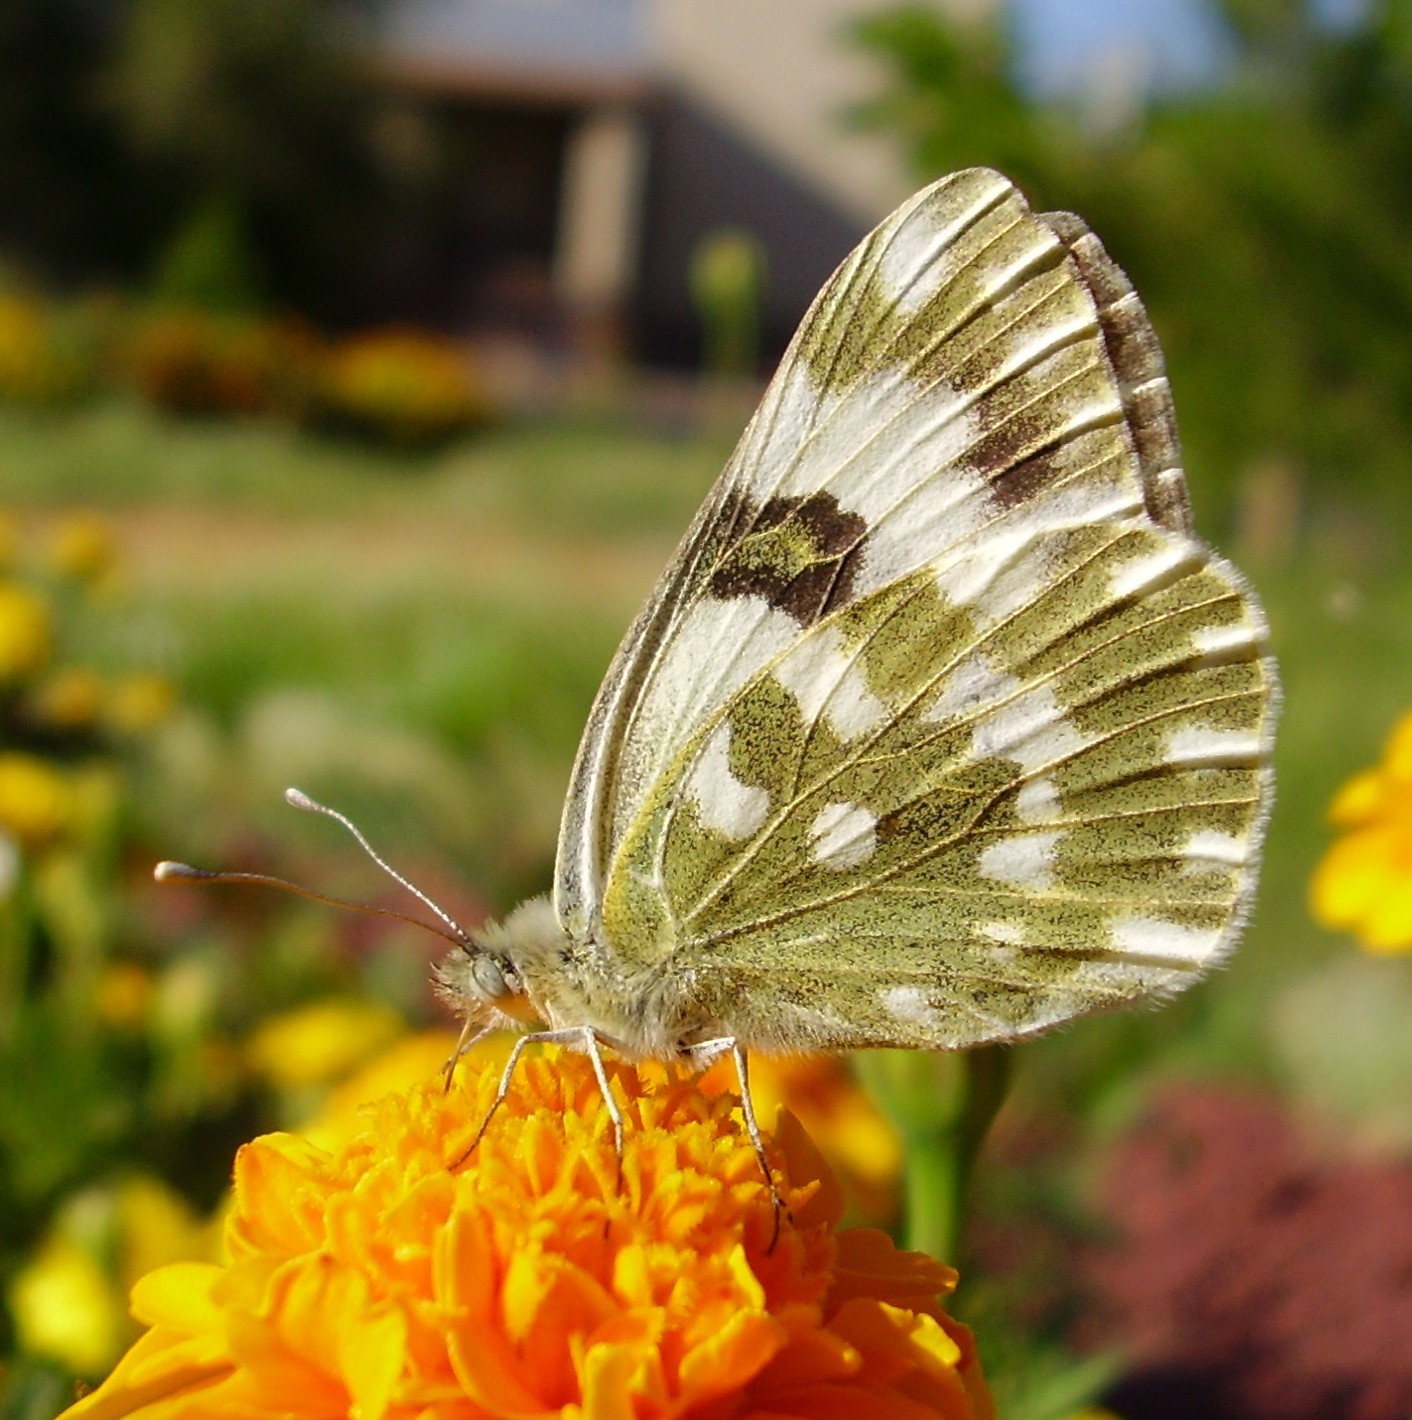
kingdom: Animalia
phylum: Arthropoda
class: Insecta
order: Lepidoptera
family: Pieridae
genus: Pontia
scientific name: Pontia edusa
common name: Eastern bath white
